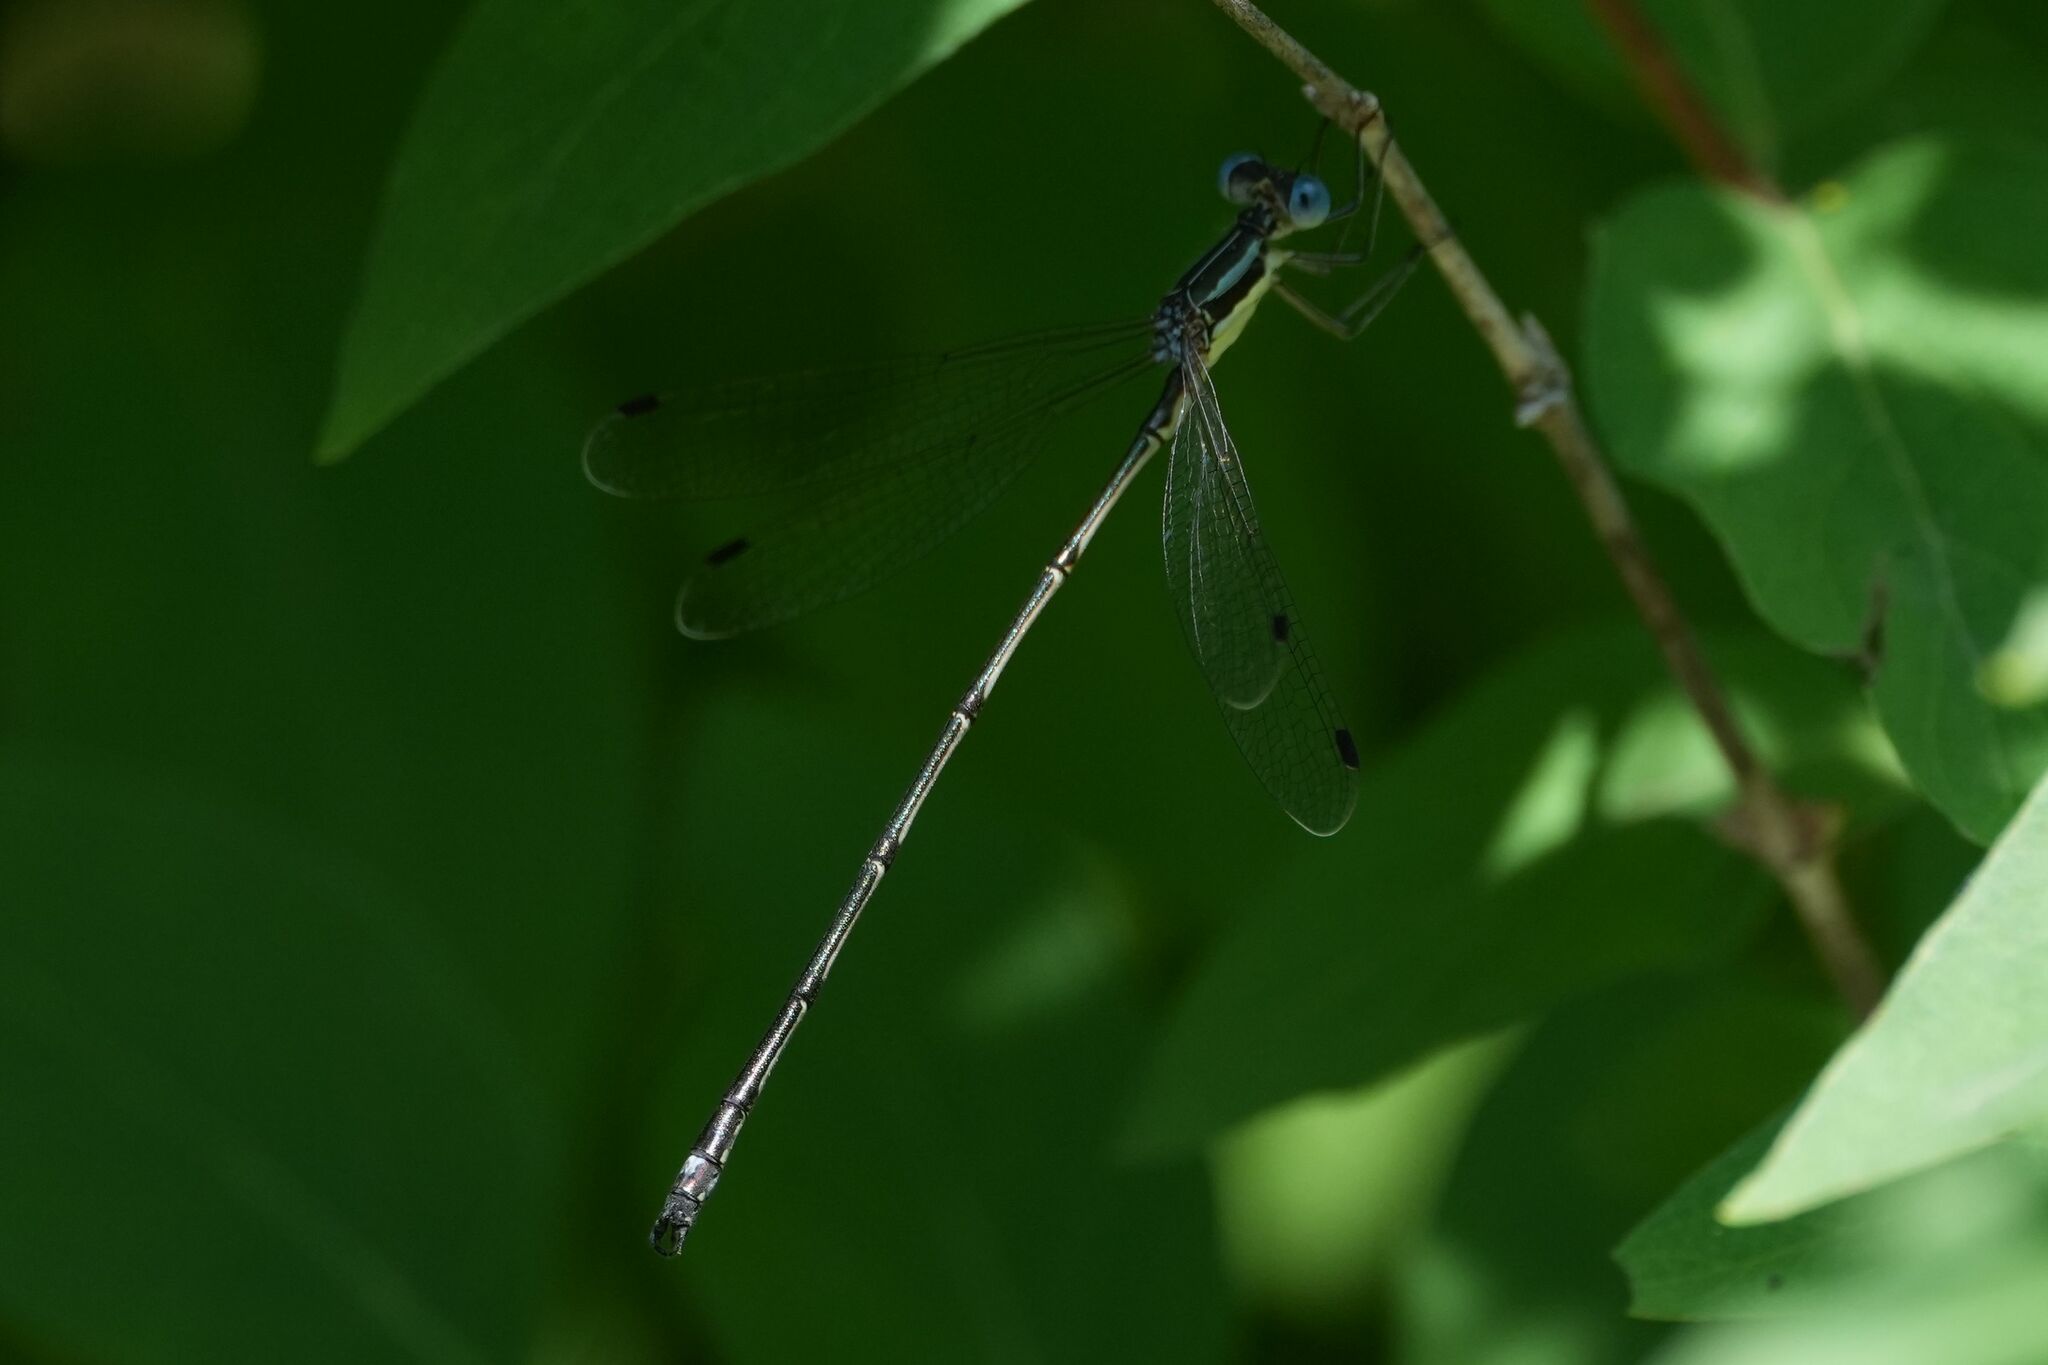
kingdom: Animalia
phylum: Arthropoda
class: Insecta
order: Odonata
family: Lestidae
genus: Lestes
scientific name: Lestes rectangularis
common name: Slender spreadwing
